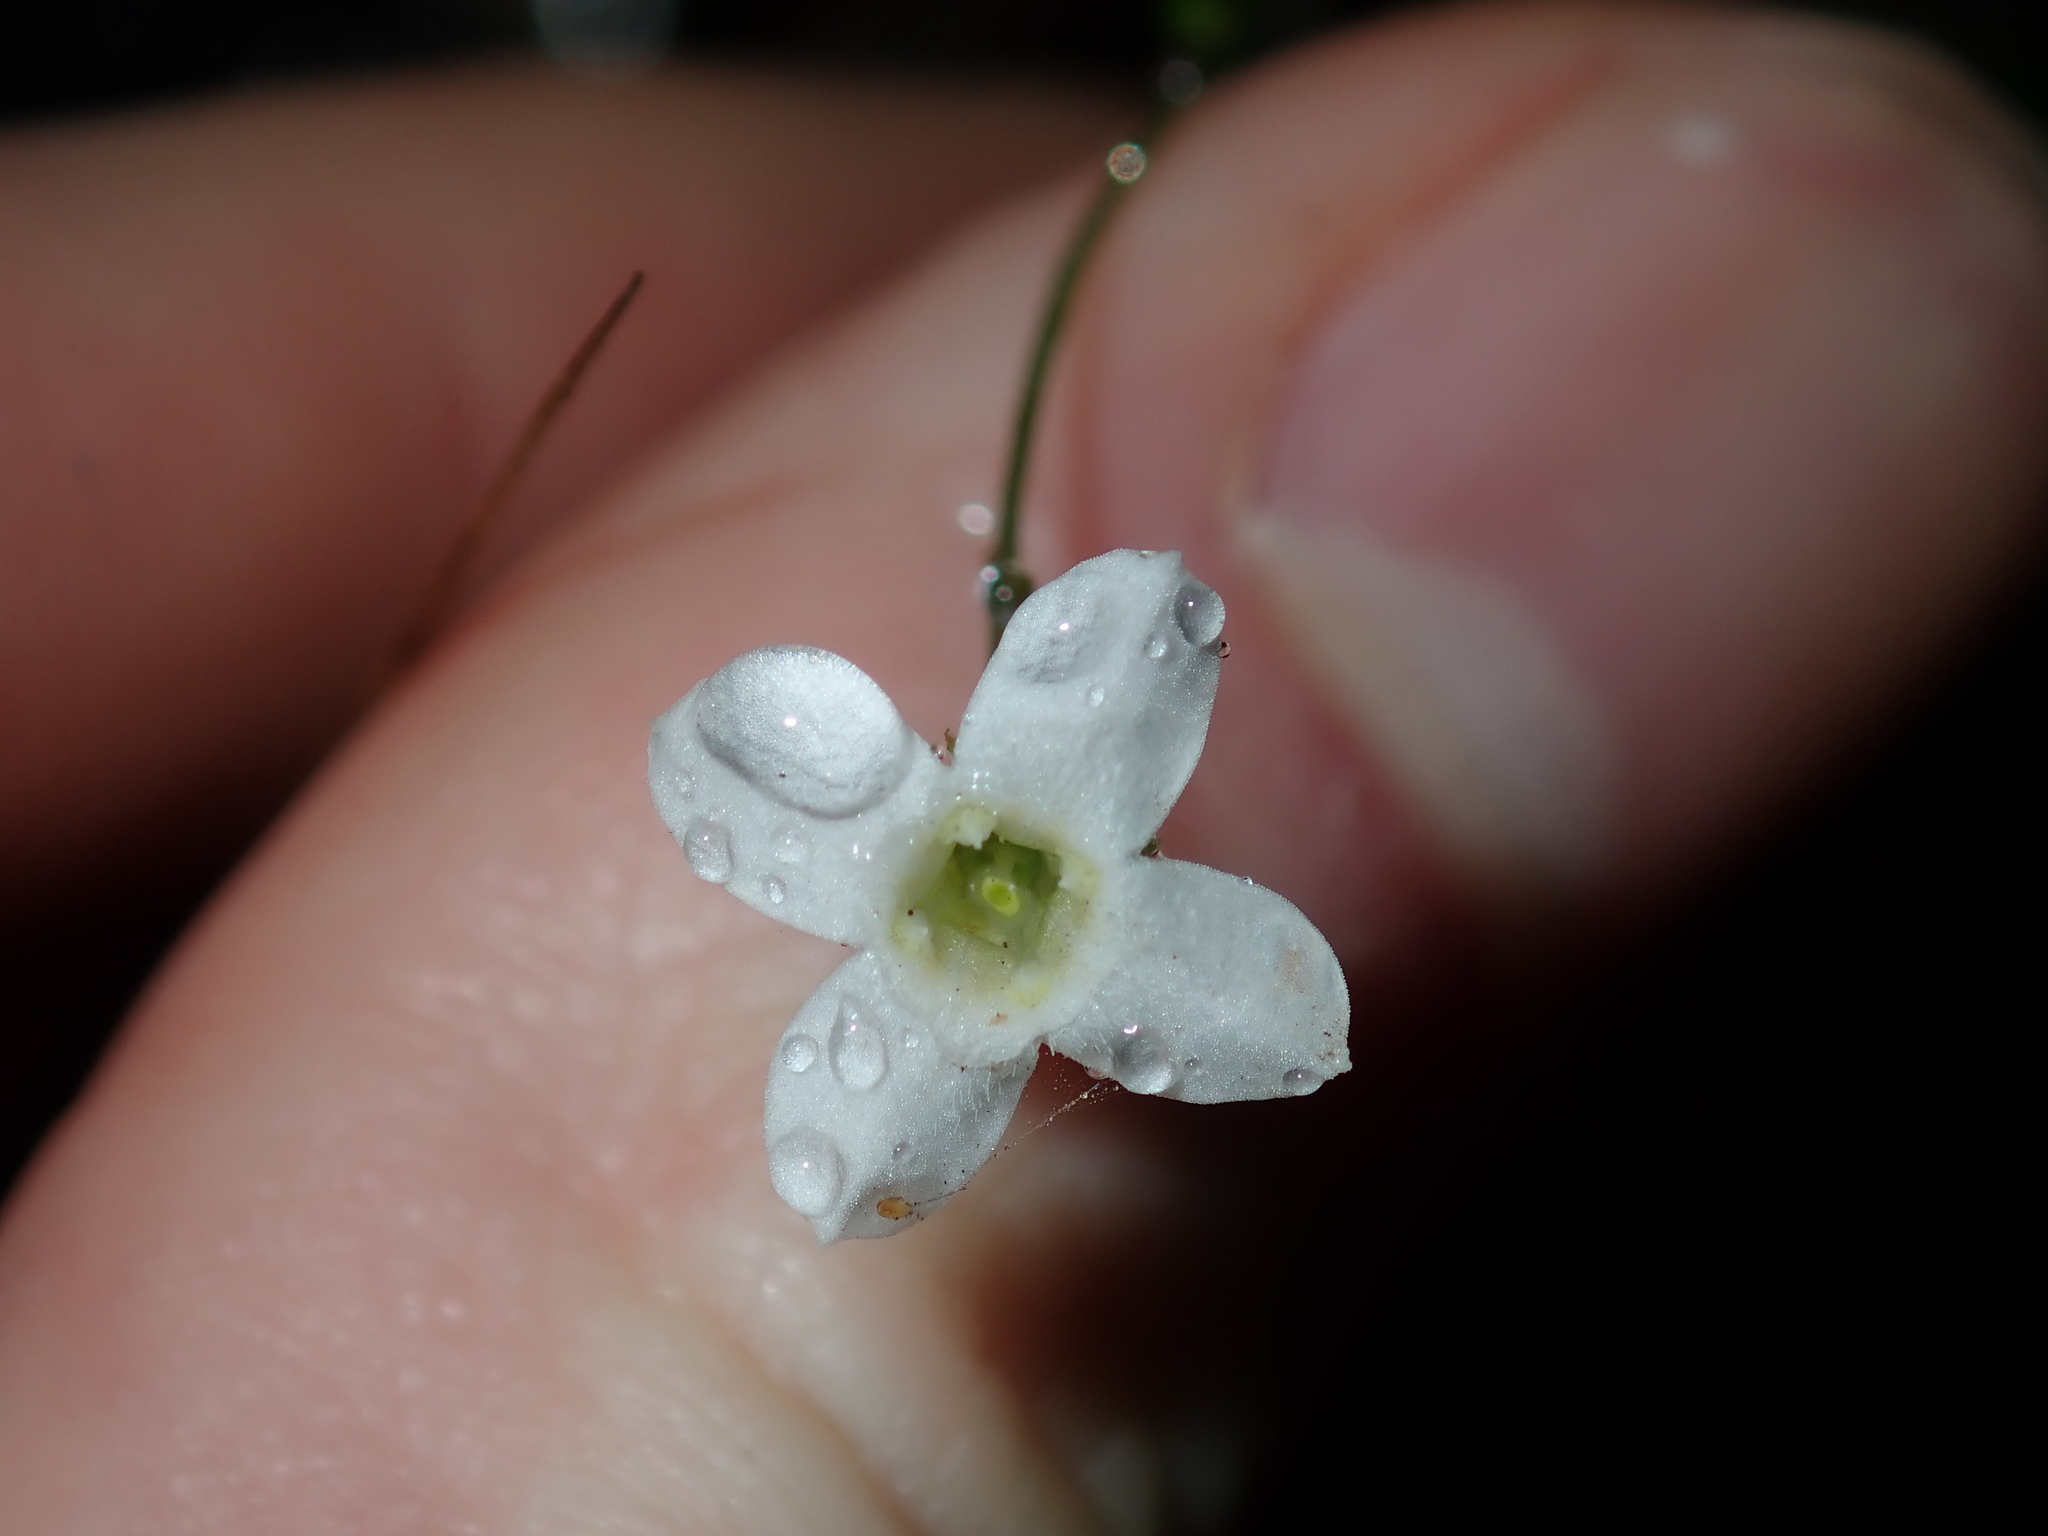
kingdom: Plantae
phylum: Tracheophyta
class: Magnoliopsida
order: Gentianales
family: Loganiaceae
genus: Mitrasacme
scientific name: Mitrasacme polymorpha
